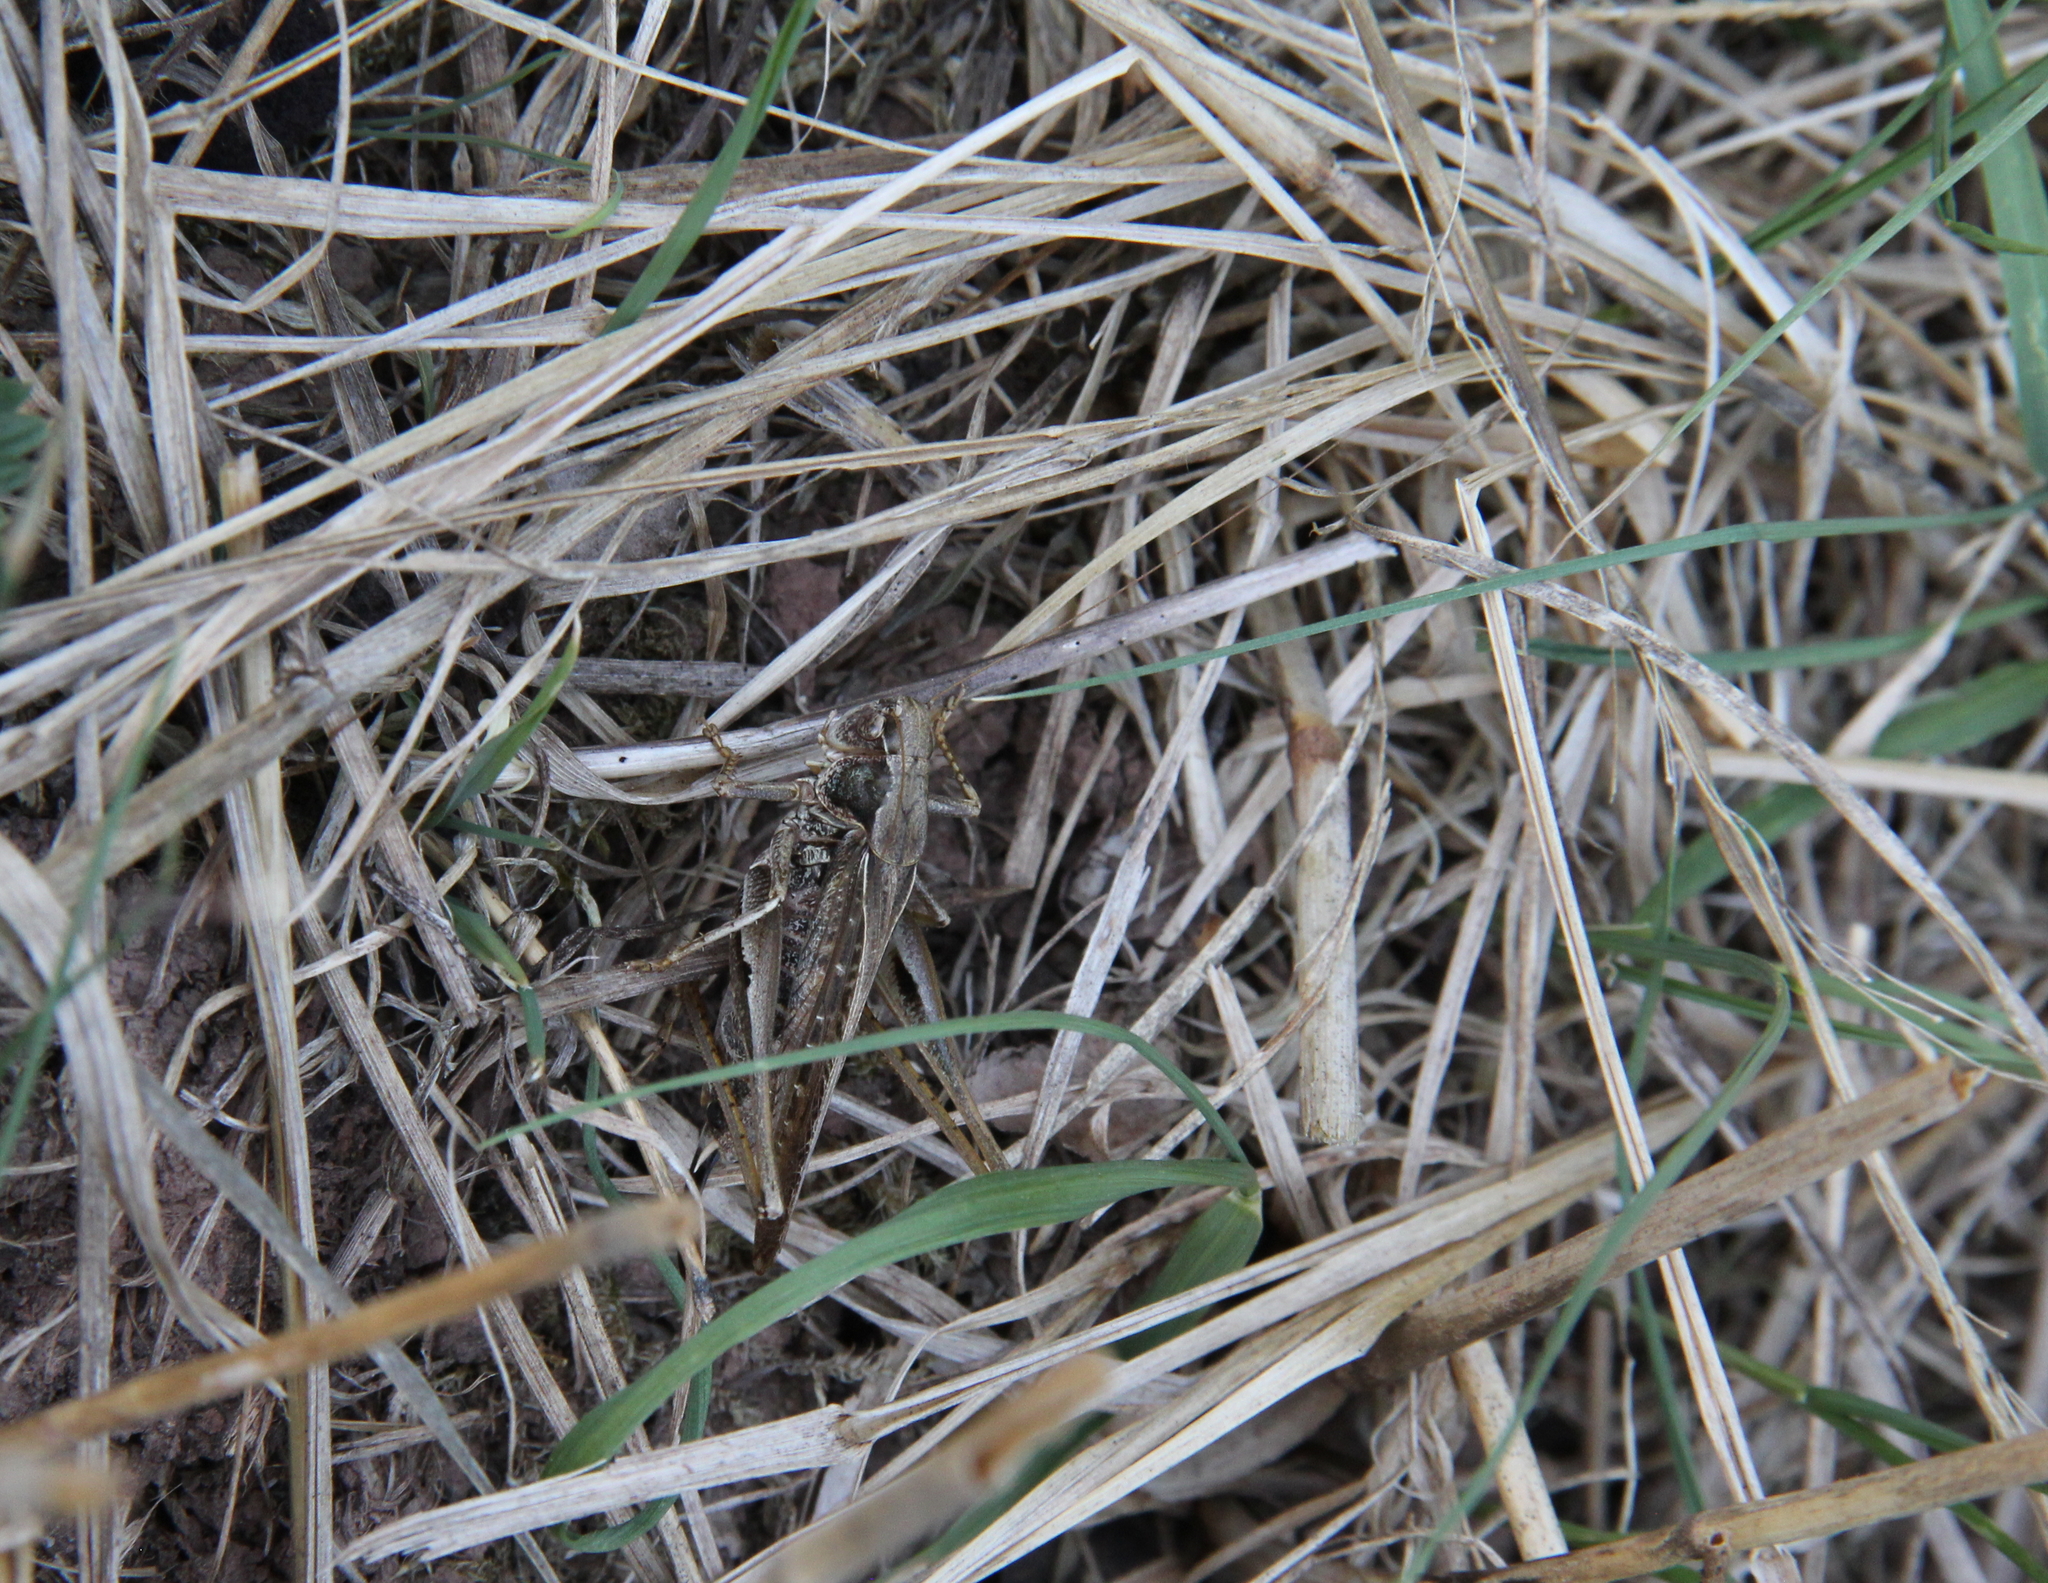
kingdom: Animalia
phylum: Arthropoda
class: Insecta
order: Orthoptera
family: Tettigoniidae
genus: Platycleis
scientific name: Platycleis albopunctata
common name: Grey bush-cricket
